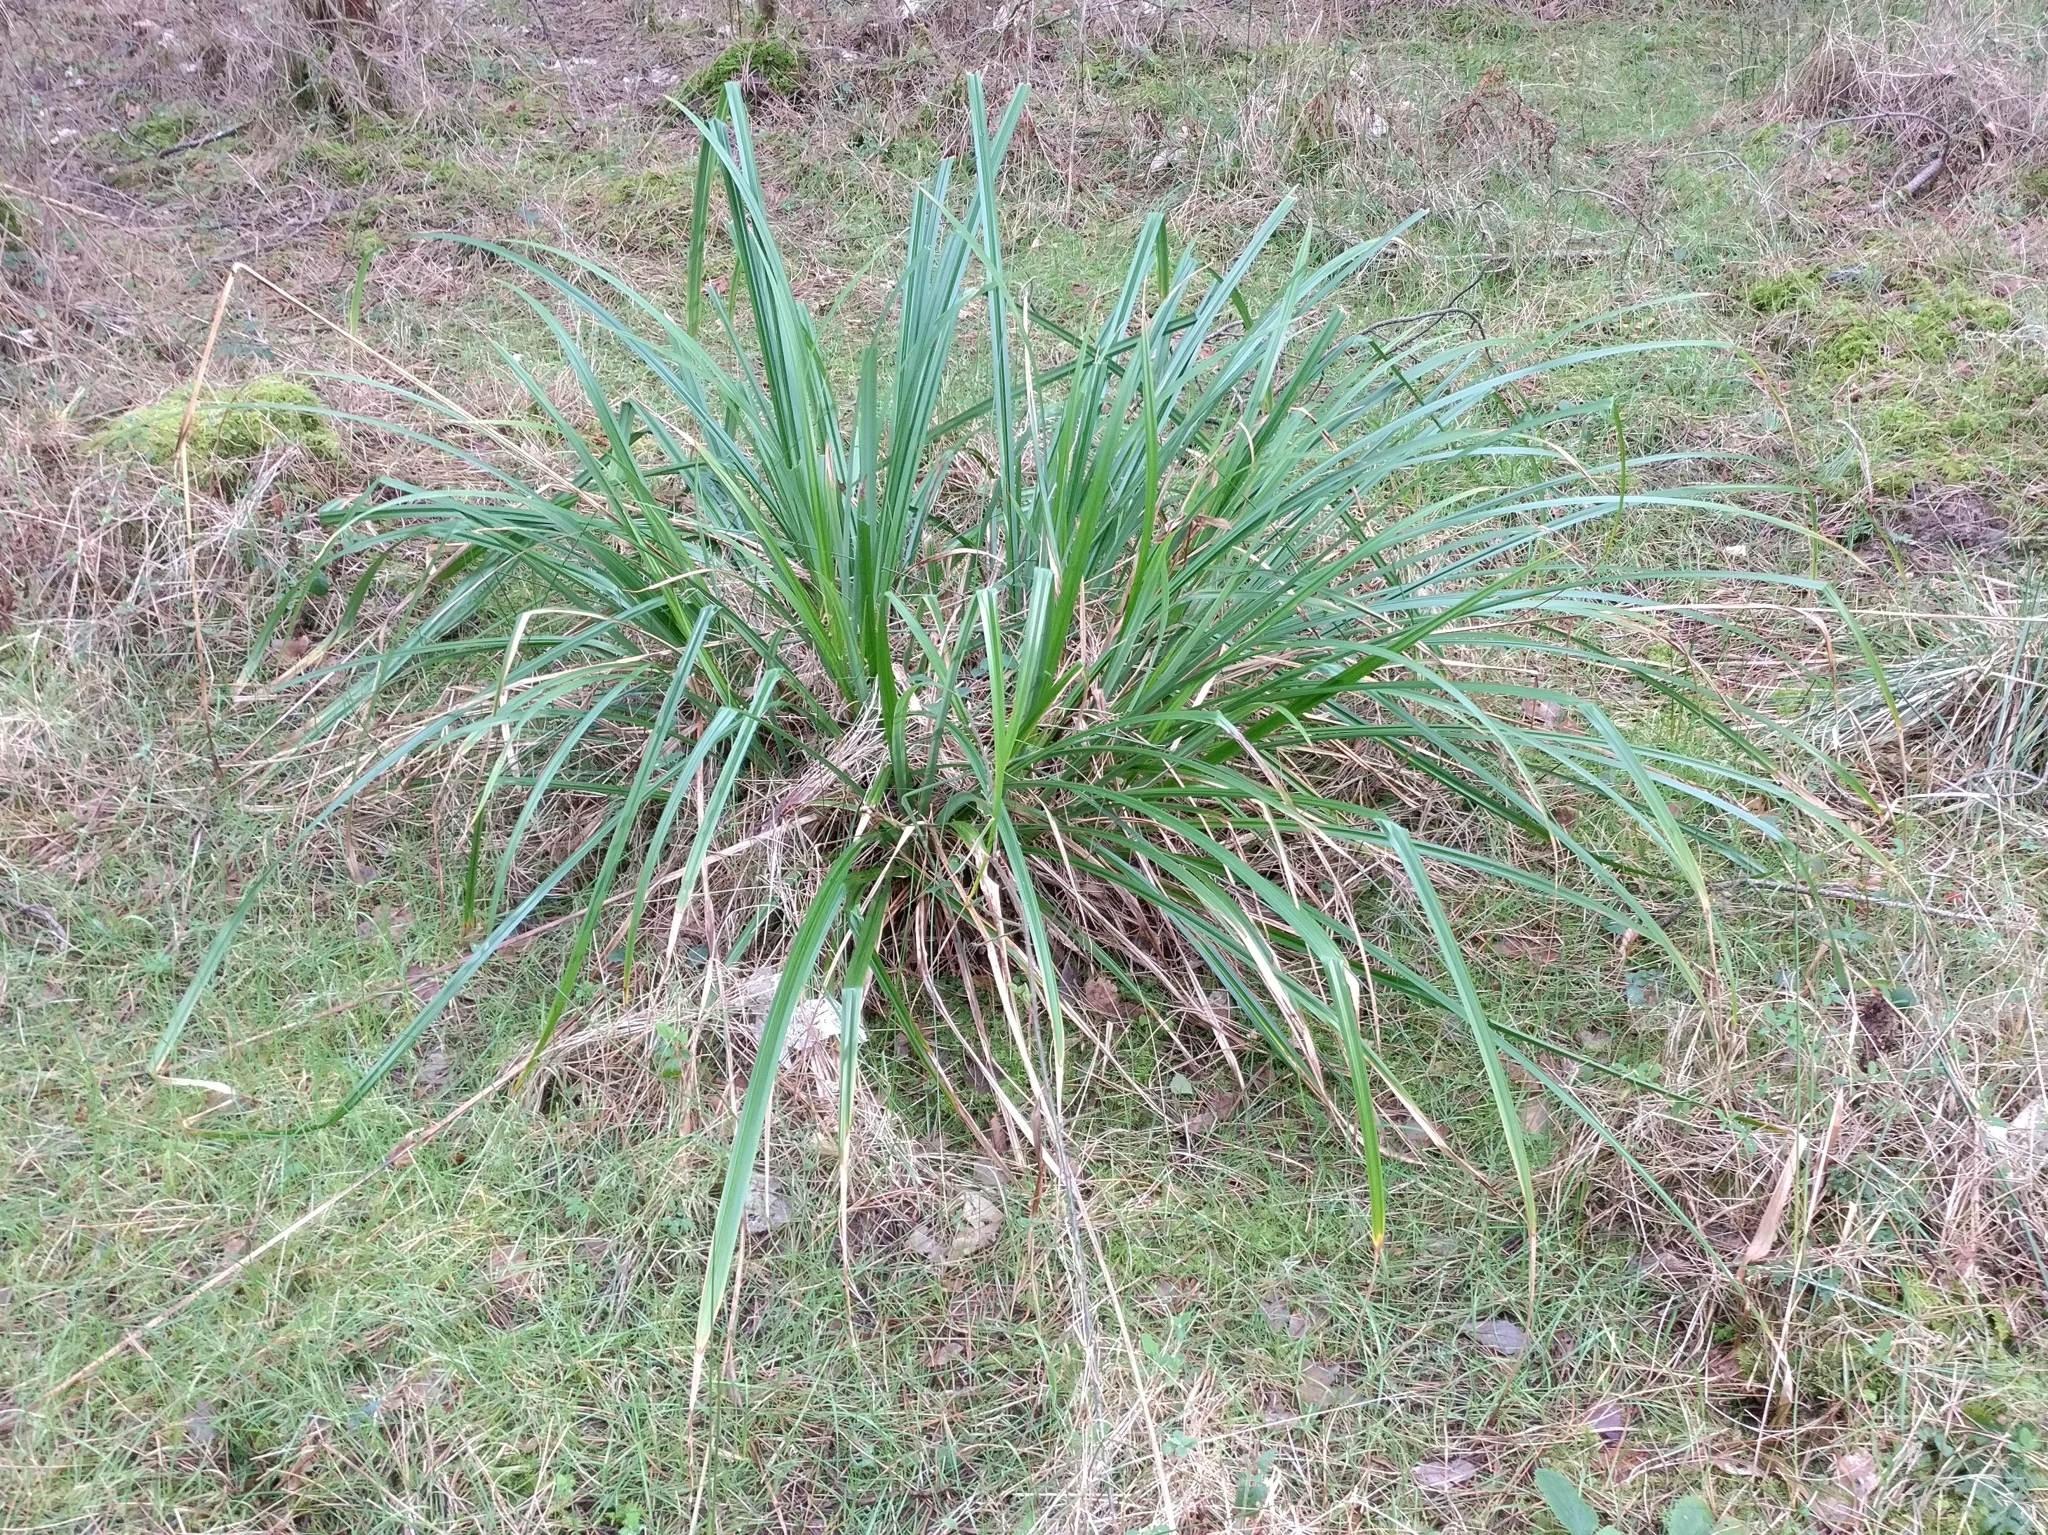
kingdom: Plantae
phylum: Tracheophyta
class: Liliopsida
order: Poales
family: Cyperaceae
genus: Carex
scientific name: Carex pendula
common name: Pendulous sedge
